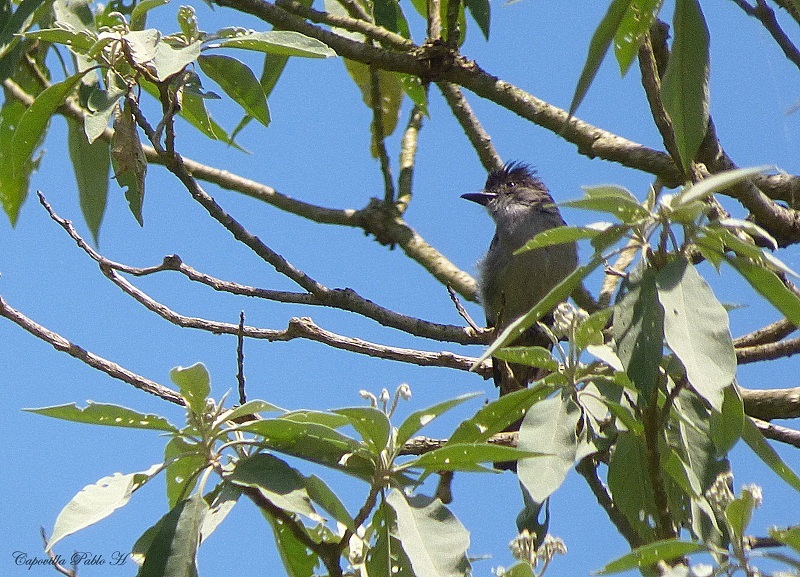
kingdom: Animalia
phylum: Chordata
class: Aves
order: Passeriformes
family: Tyrannidae
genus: Sirystes
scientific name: Sirystes sibilator
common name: Sirystes
